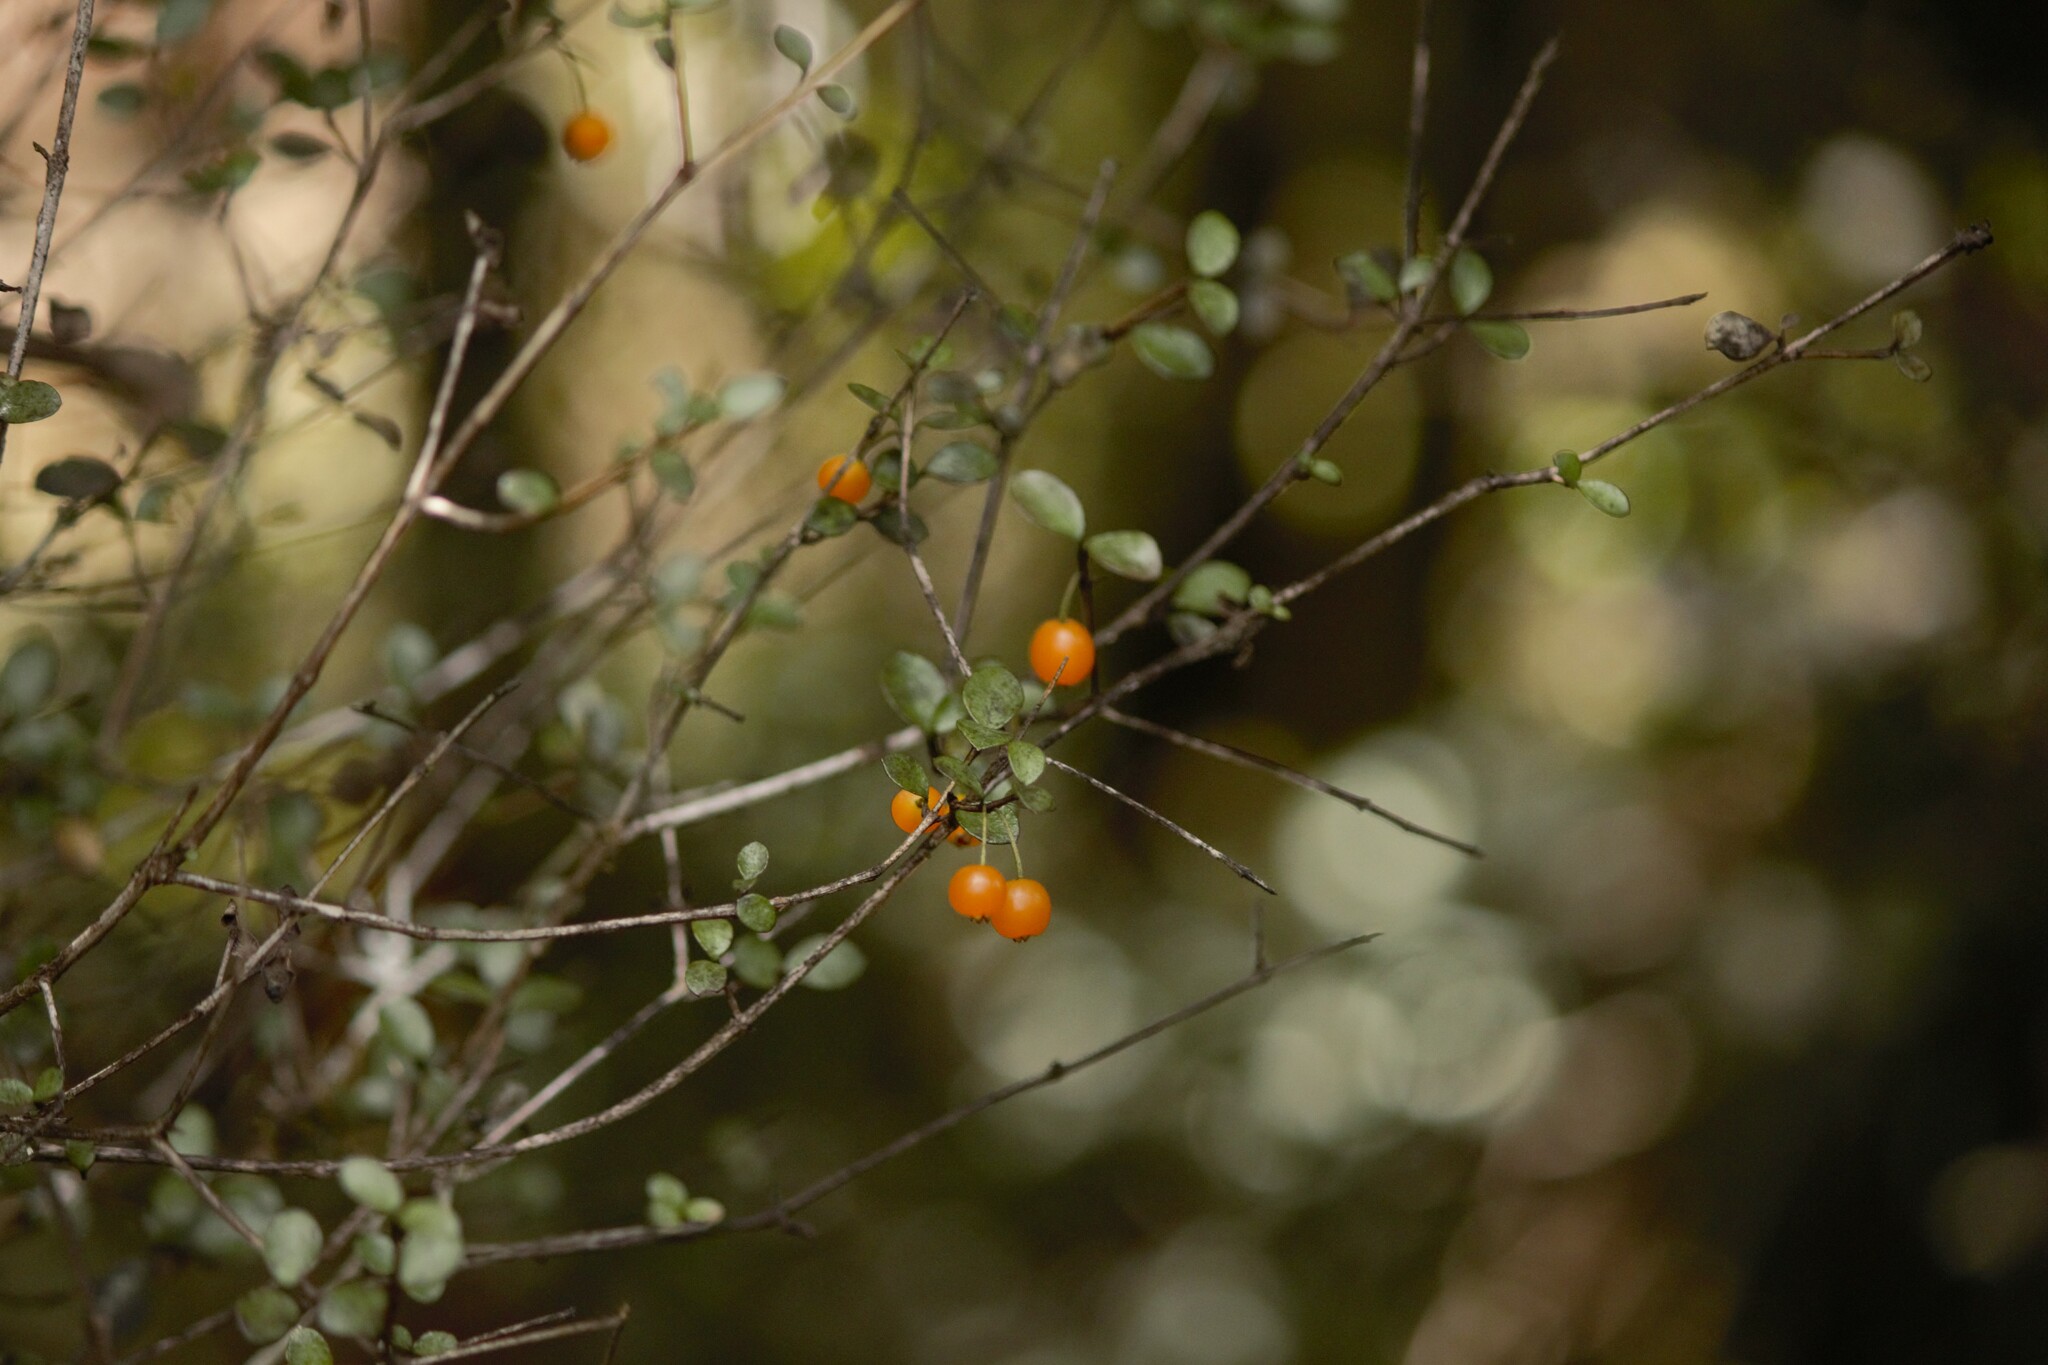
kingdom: Plantae
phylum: Tracheophyta
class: Magnoliopsida
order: Myrtales
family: Myrtaceae
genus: Neomyrtus
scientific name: Neomyrtus pedunculata
